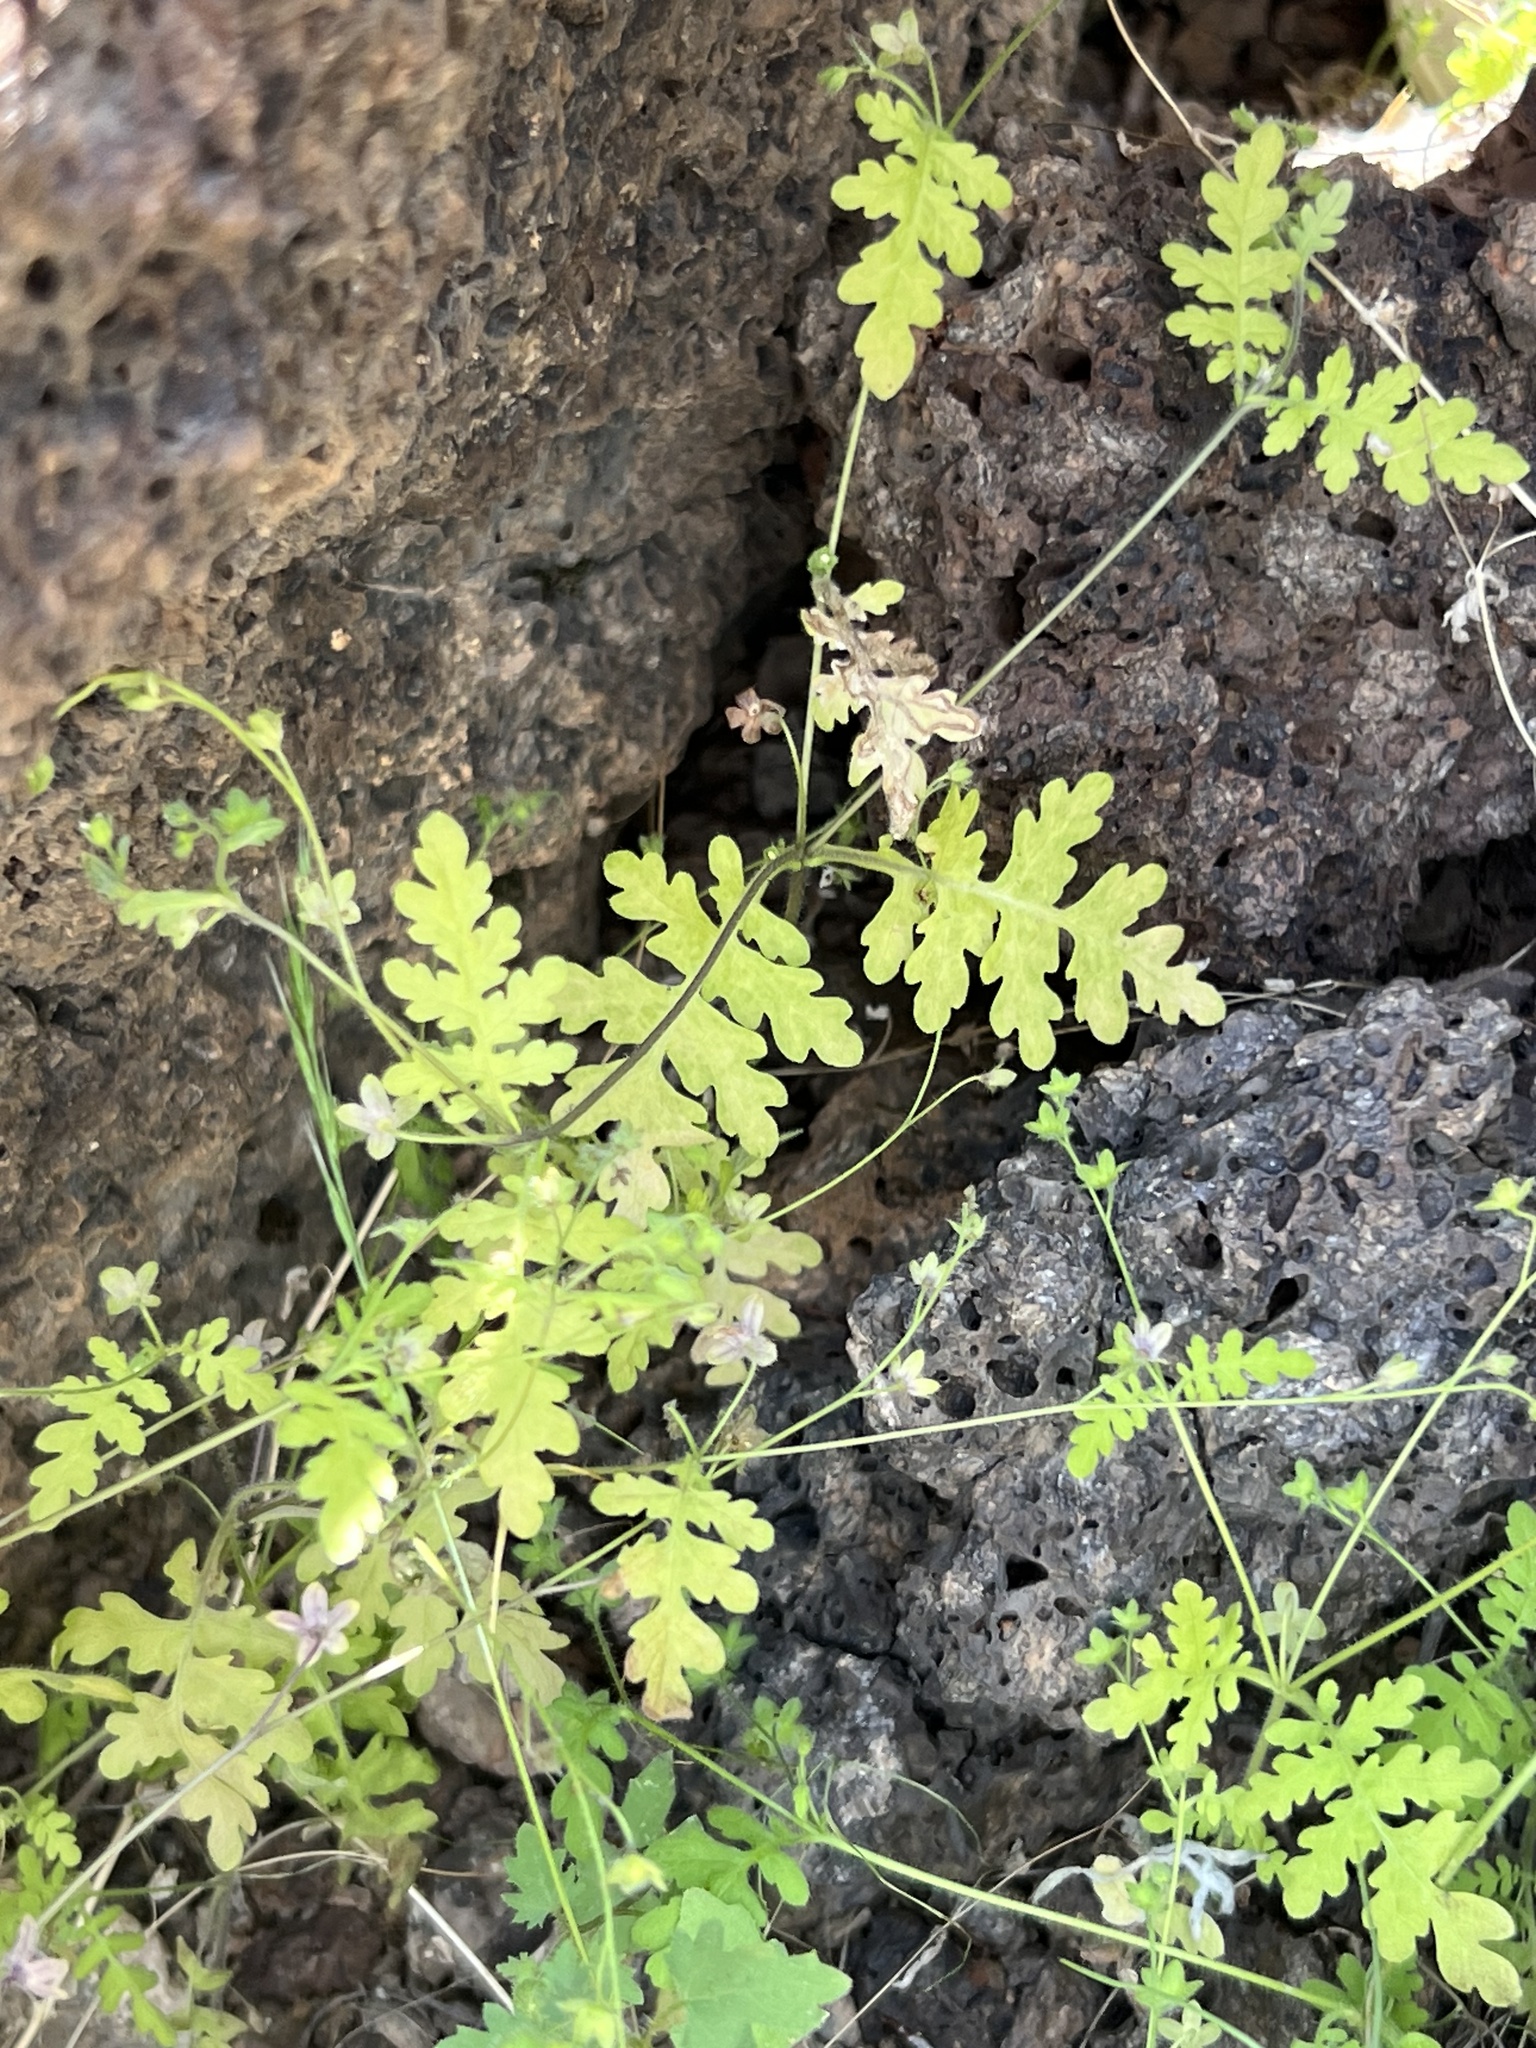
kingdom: Plantae
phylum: Tracheophyta
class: Magnoliopsida
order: Boraginales
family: Hydrophyllaceae
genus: Eucrypta
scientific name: Eucrypta chrysanthemifolia
